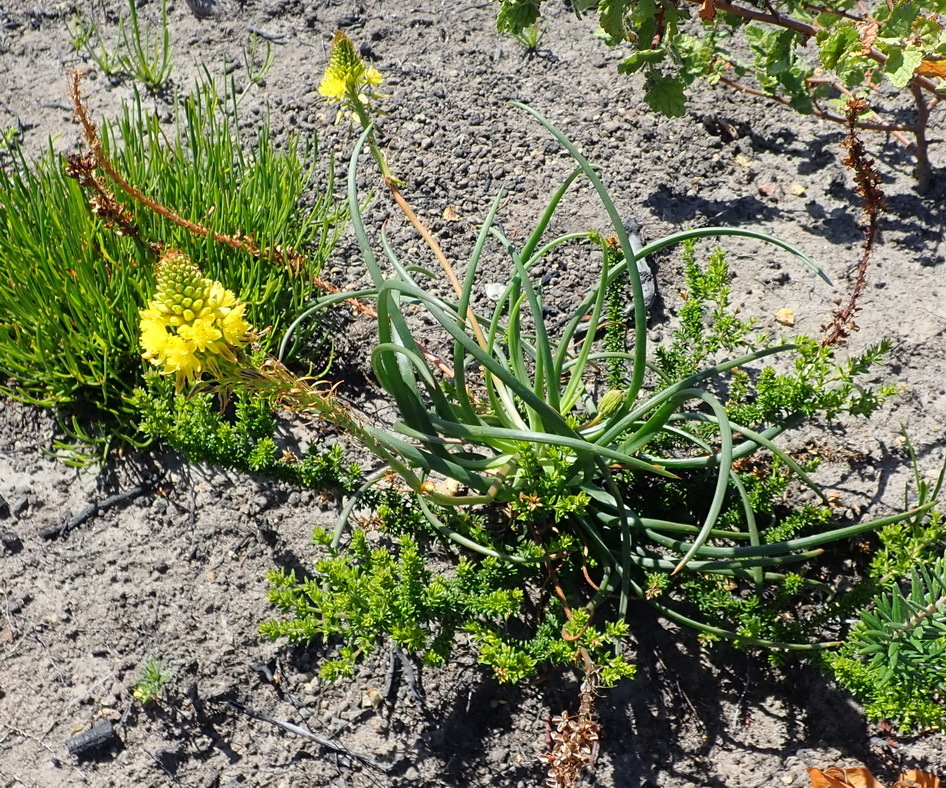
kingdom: Plantae
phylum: Tracheophyta
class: Liliopsida
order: Asparagales
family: Asphodelaceae
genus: Bulbine
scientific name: Bulbine lagopus
